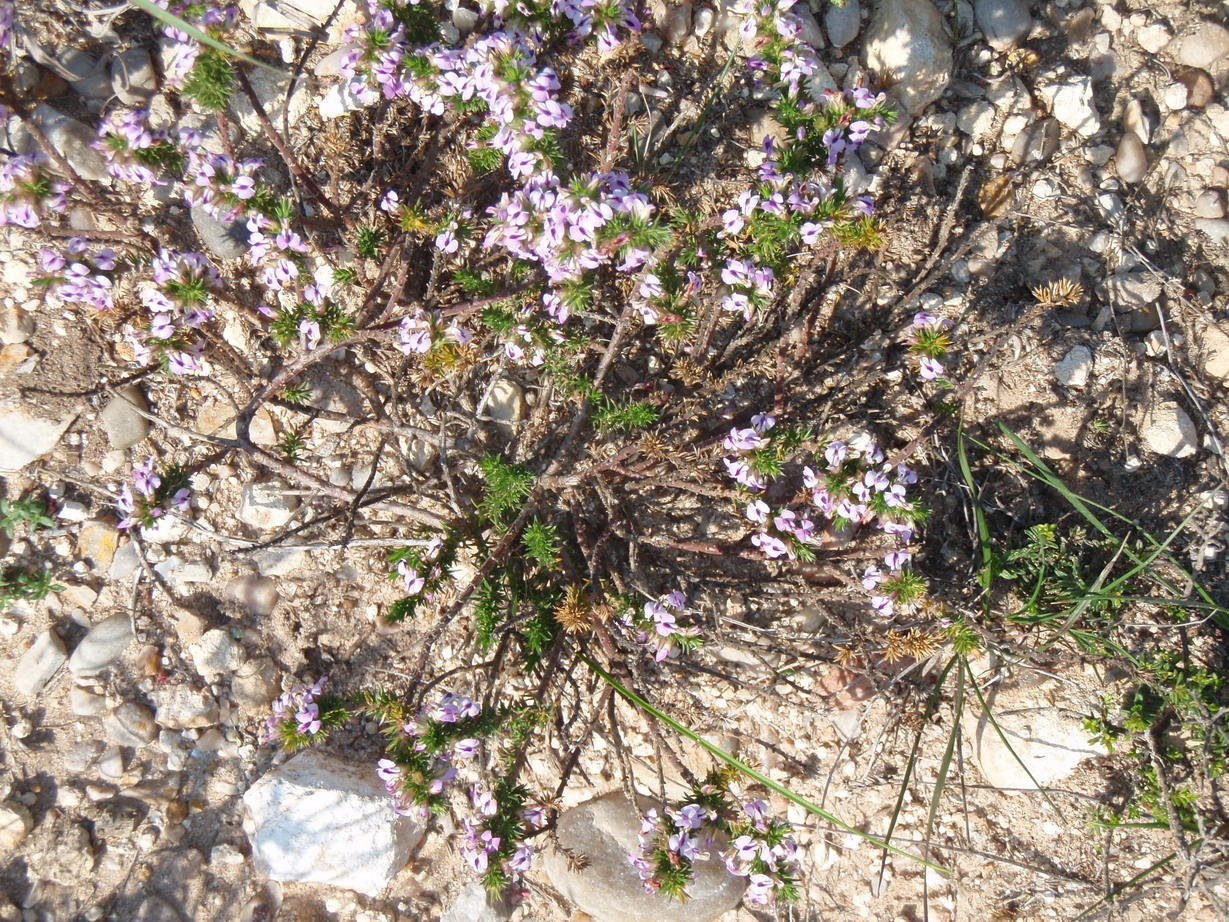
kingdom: Plantae
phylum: Tracheophyta
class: Magnoliopsida
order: Fabales
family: Polygalaceae
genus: Muraltia
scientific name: Muraltia ericifolia
